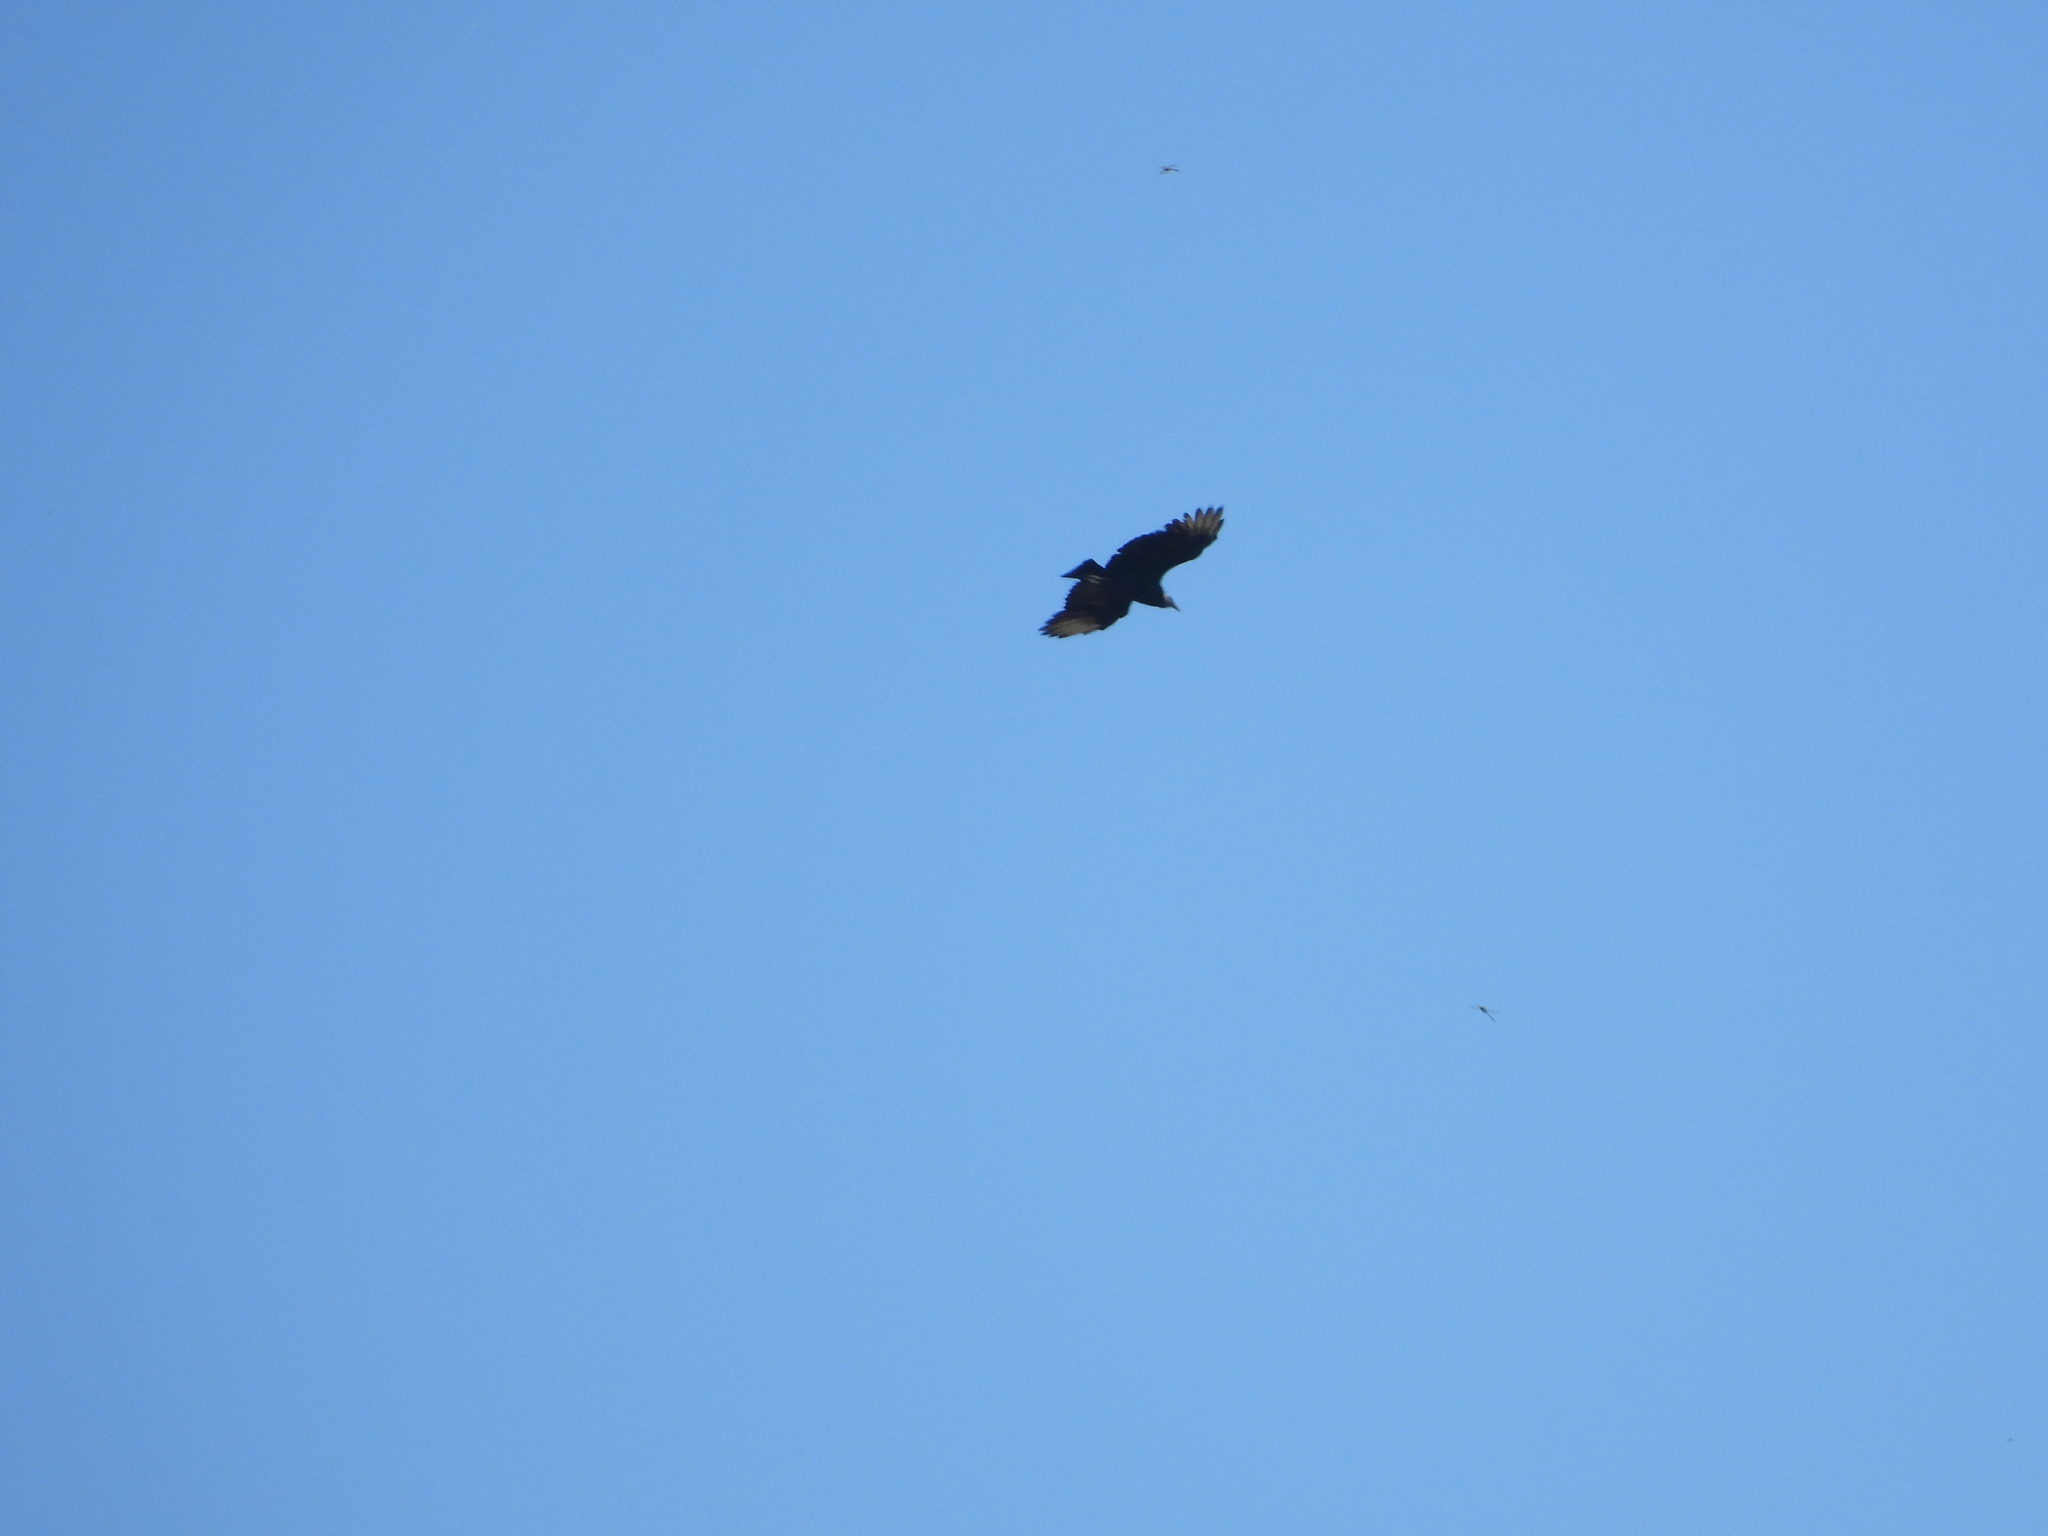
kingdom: Animalia
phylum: Chordata
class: Aves
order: Accipitriformes
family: Cathartidae
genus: Coragyps
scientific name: Coragyps atratus
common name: Black vulture
